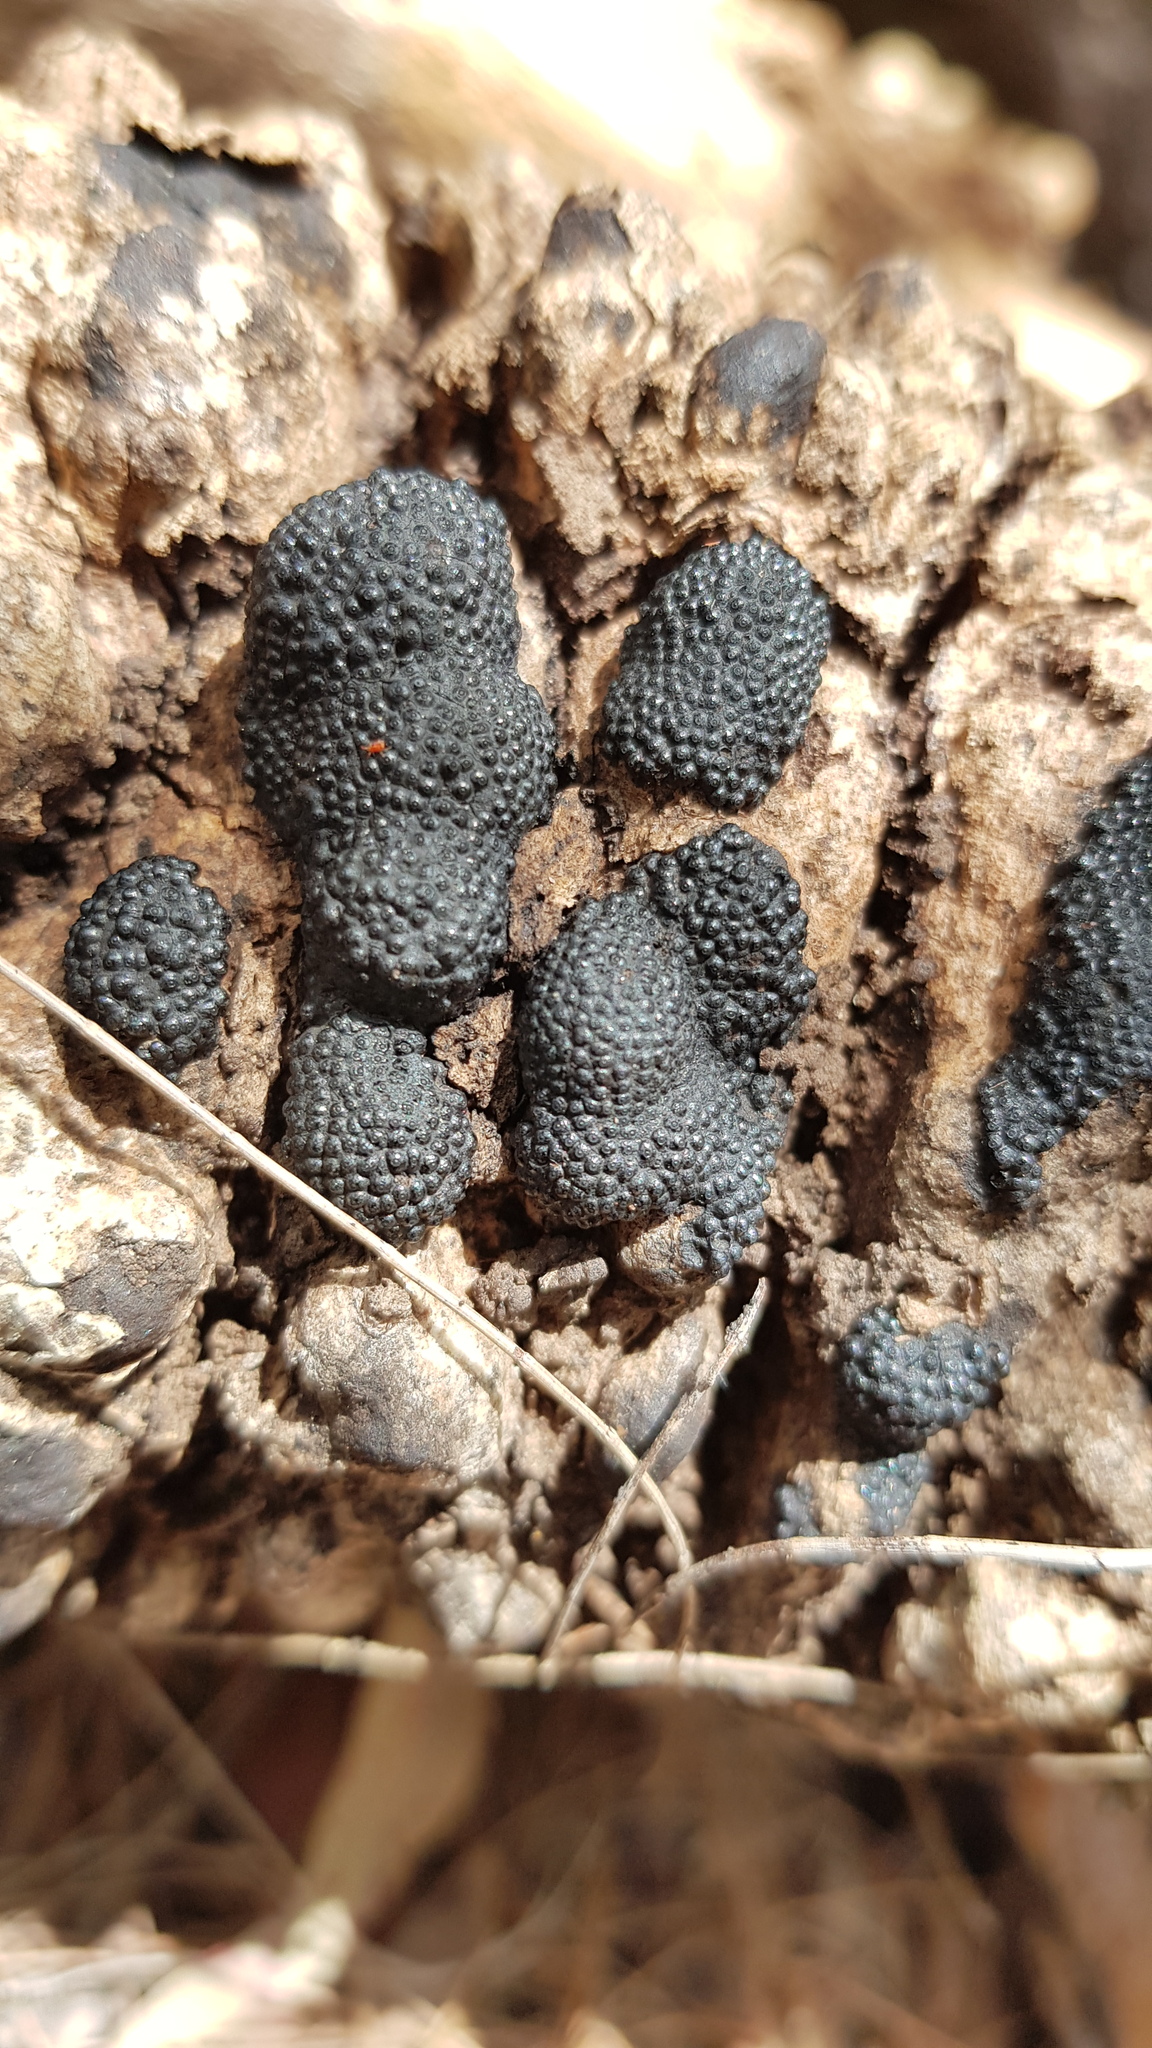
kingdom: Fungi
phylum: Ascomycota
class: Sordariomycetes
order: Xylariales
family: Hypoxylaceae
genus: Annulohypoxylon
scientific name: Annulohypoxylon bovei
